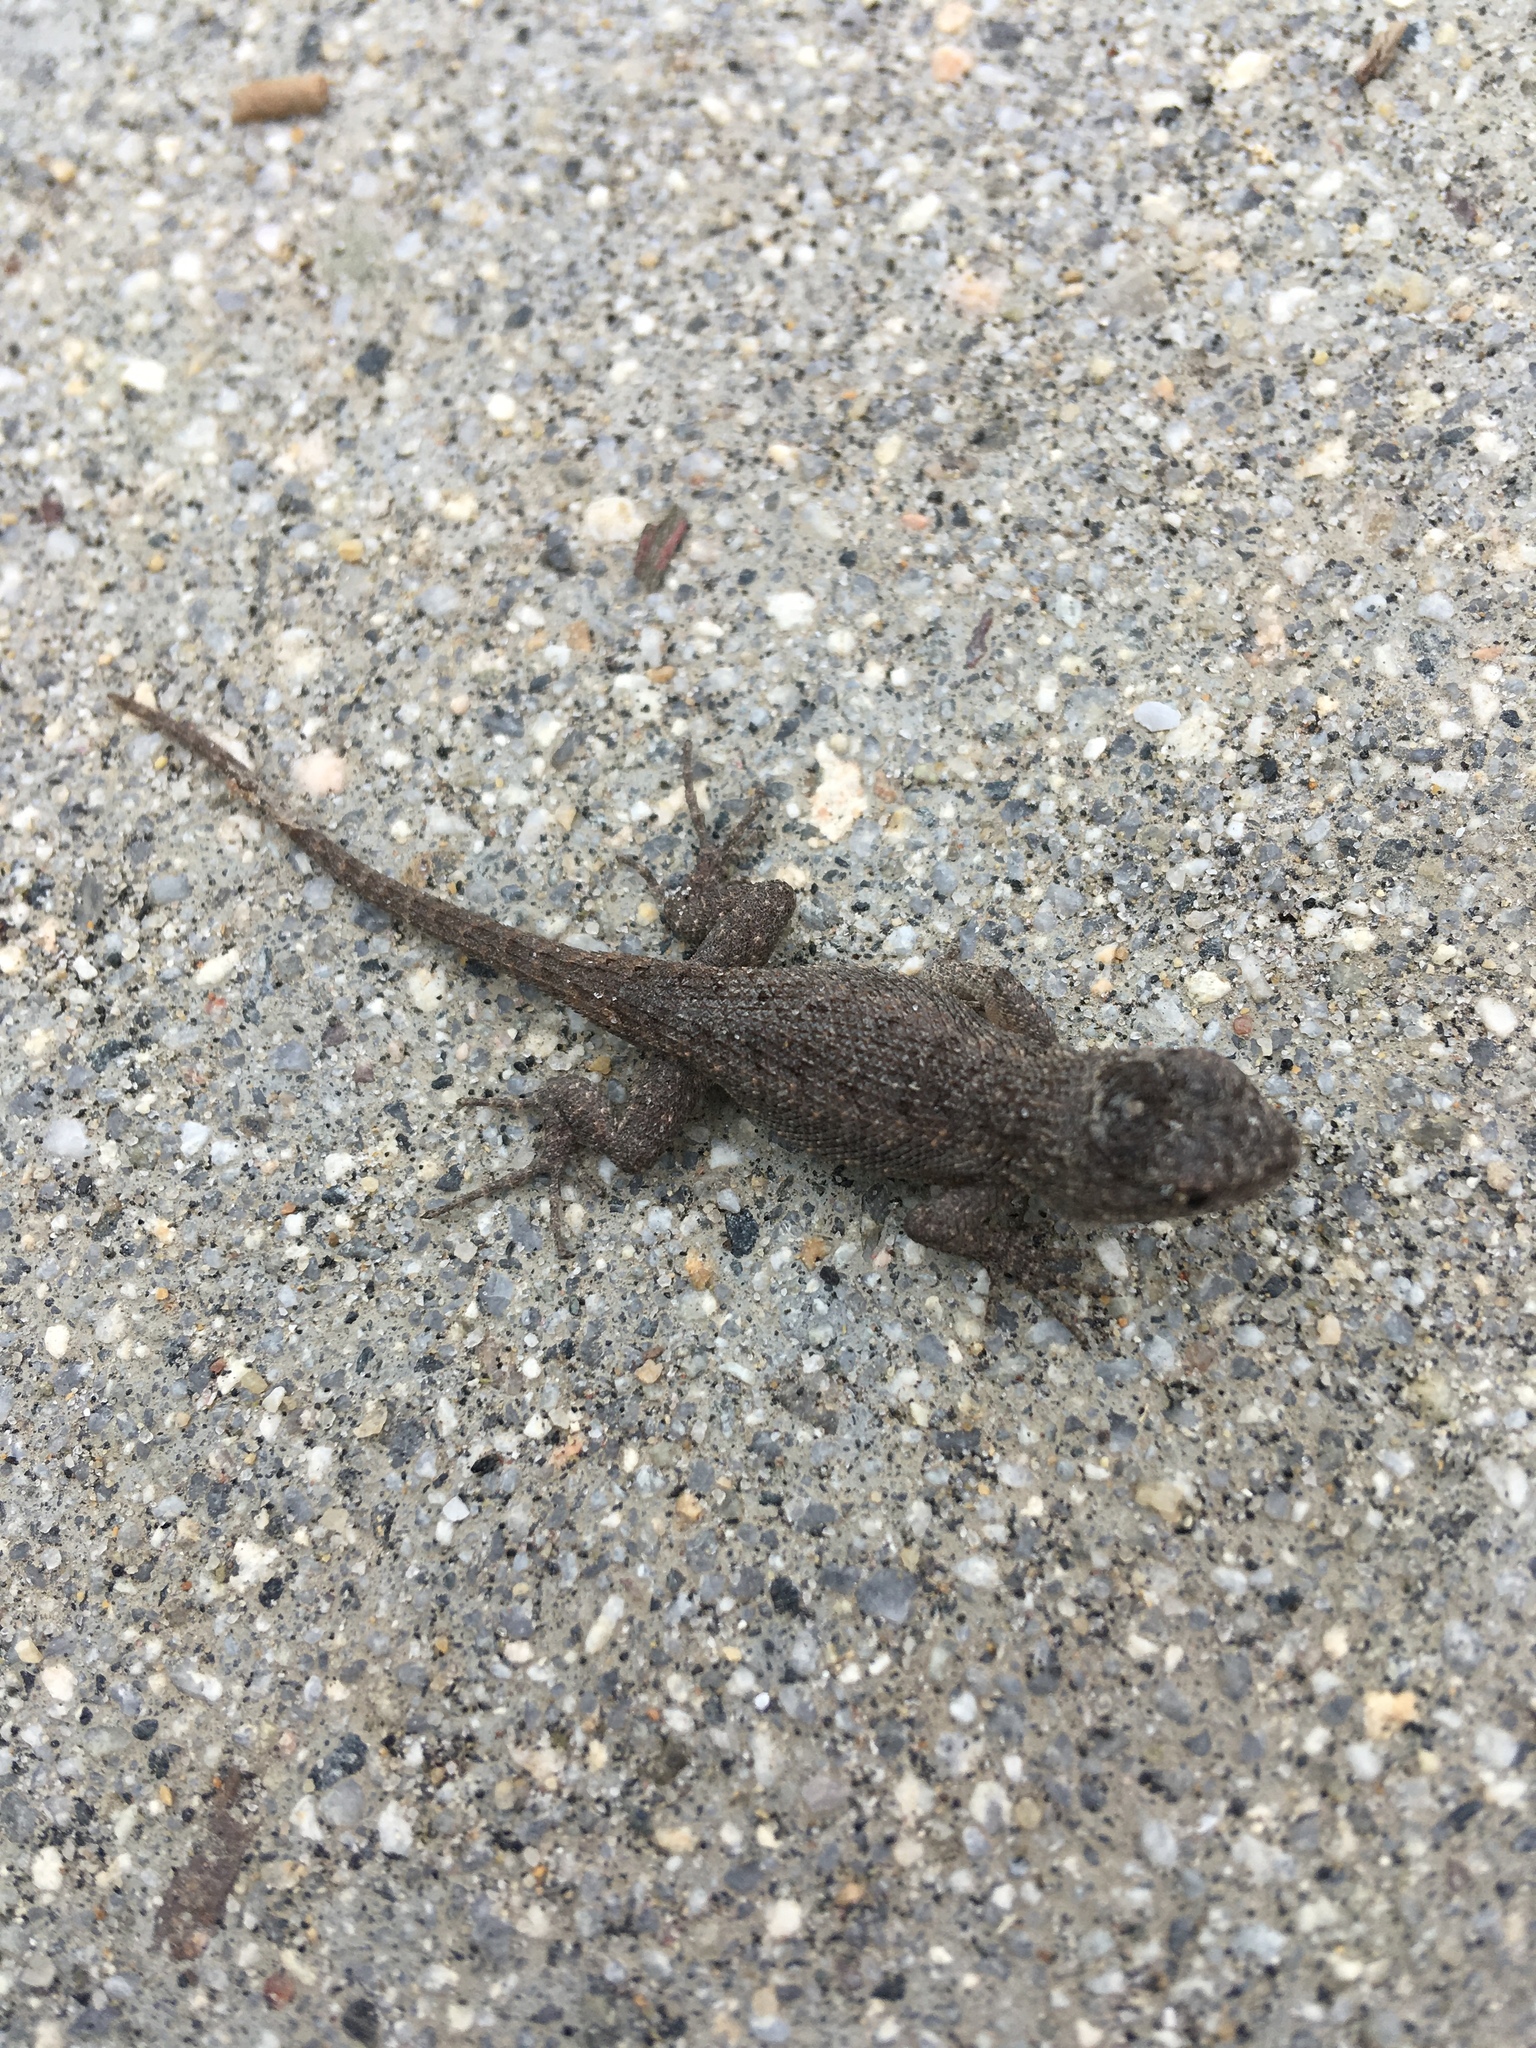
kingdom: Animalia
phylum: Chordata
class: Squamata
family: Phrynosomatidae
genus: Sceloporus
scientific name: Sceloporus occidentalis
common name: Western fence lizard
